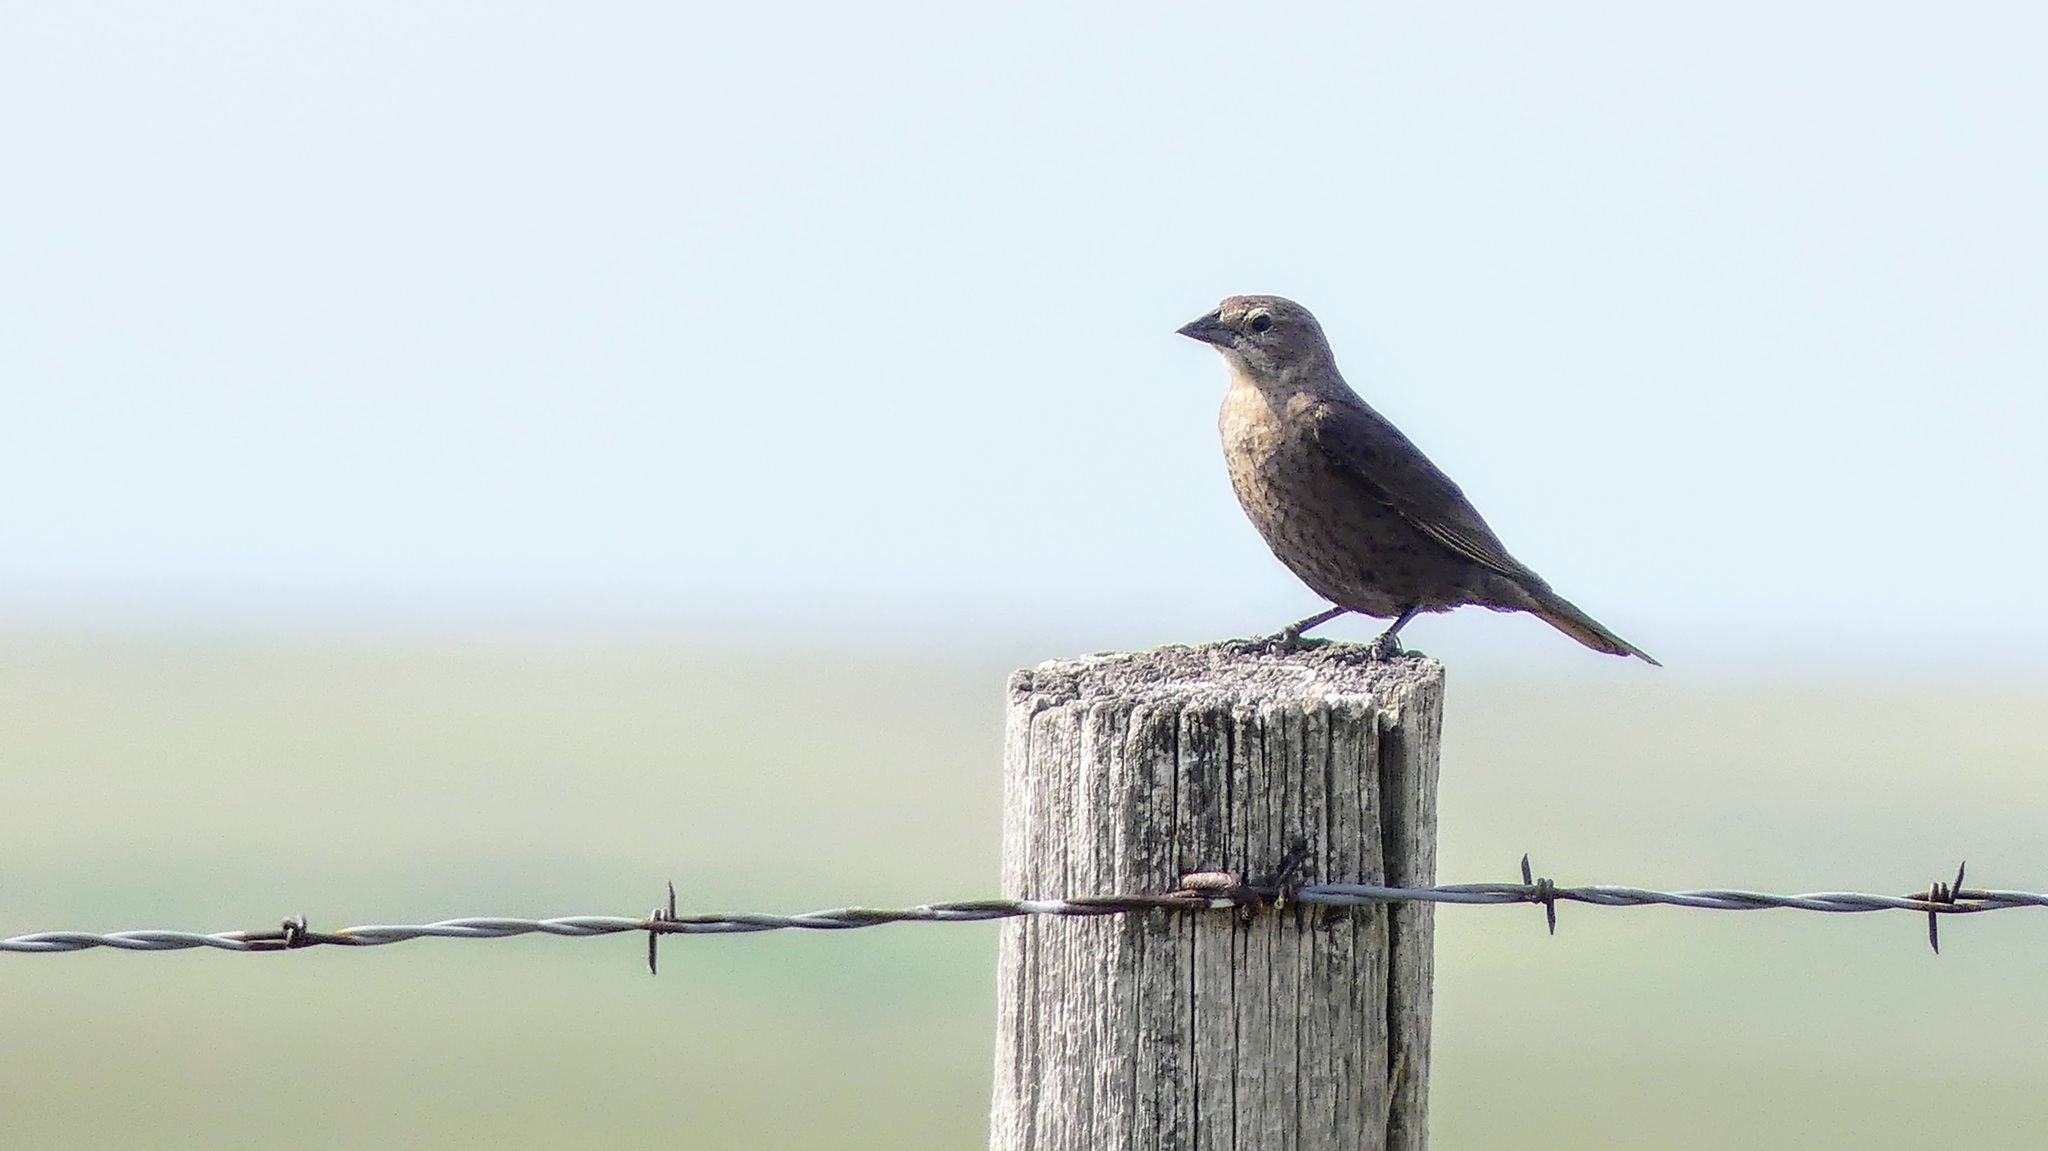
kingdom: Animalia
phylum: Chordata
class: Aves
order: Passeriformes
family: Icteridae
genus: Molothrus
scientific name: Molothrus ater
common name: Brown-headed cowbird
